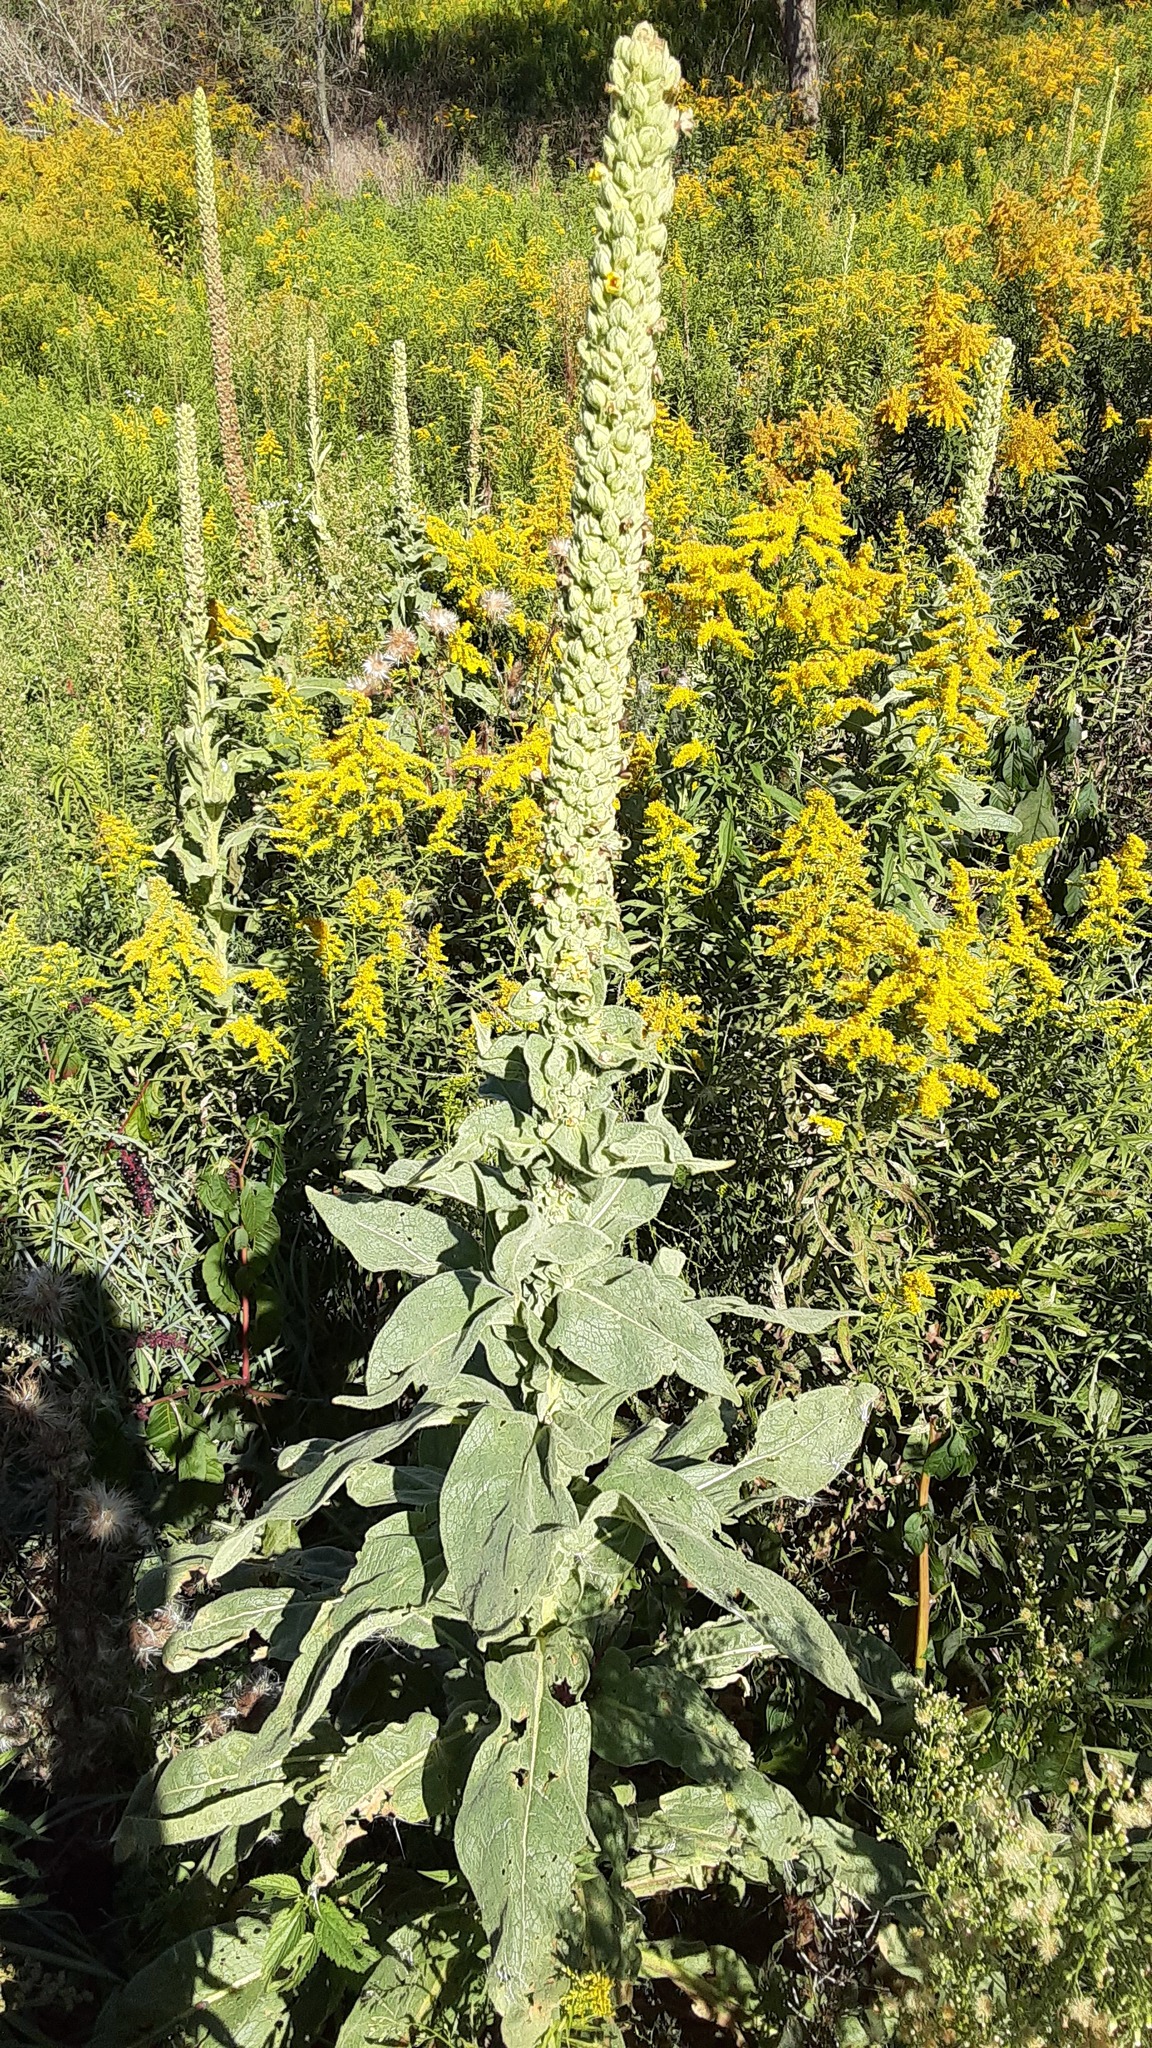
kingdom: Plantae
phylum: Tracheophyta
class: Magnoliopsida
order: Lamiales
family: Scrophulariaceae
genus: Verbascum
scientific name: Verbascum thapsus
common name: Common mullein
